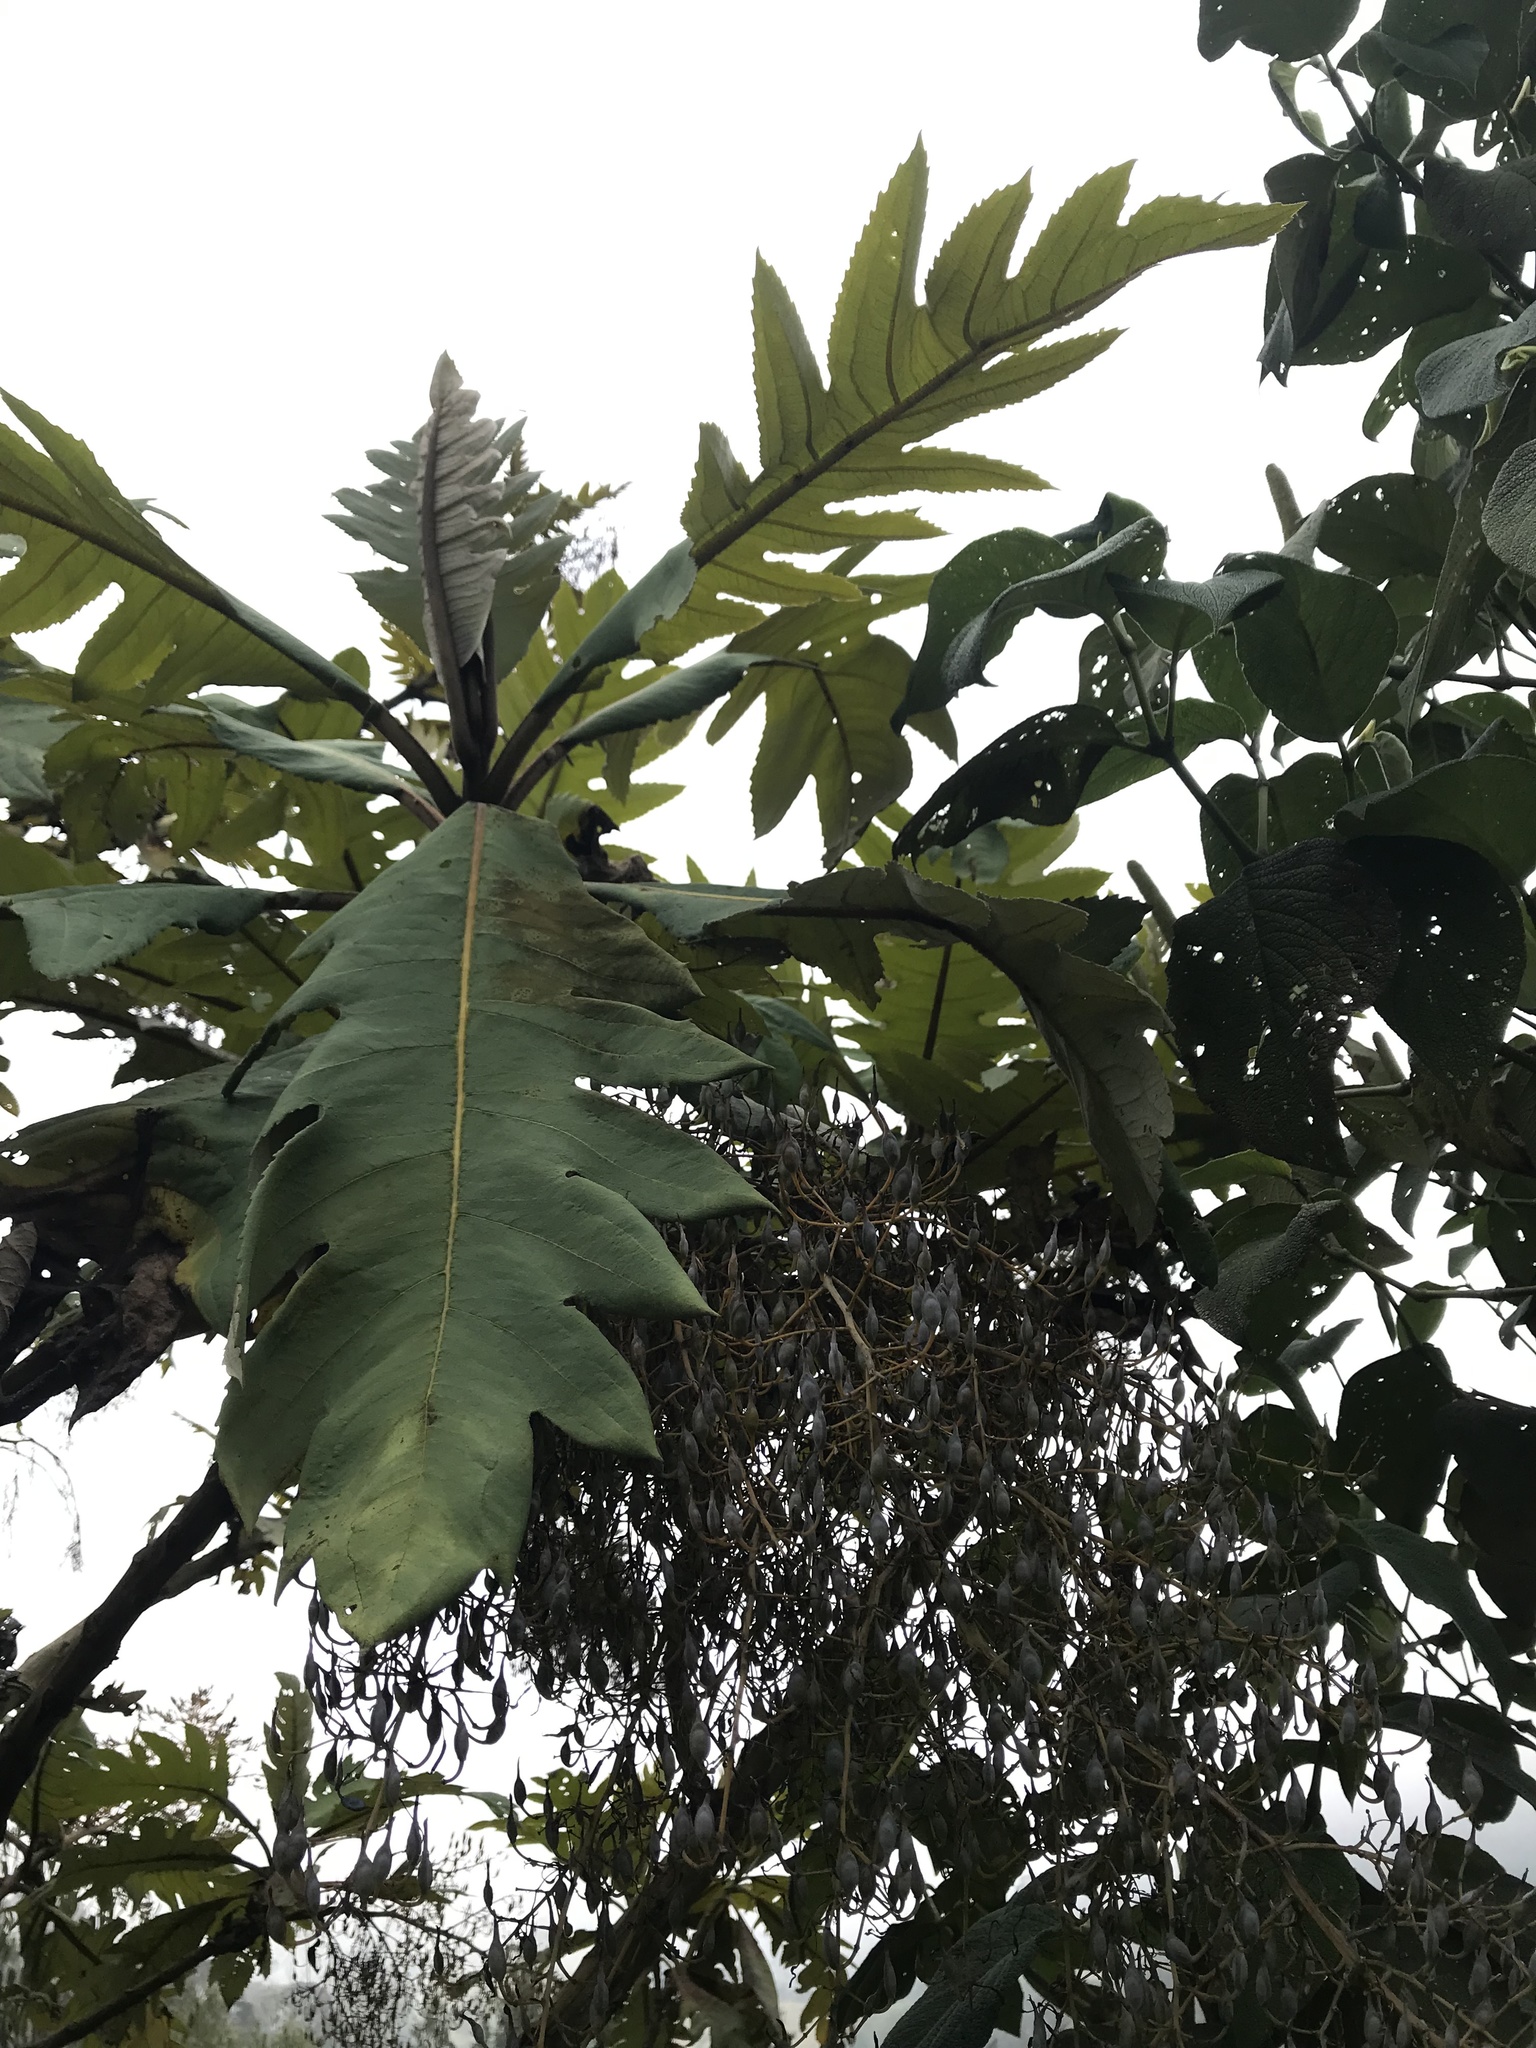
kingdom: Plantae
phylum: Tracheophyta
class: Magnoliopsida
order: Ranunculales
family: Papaveraceae
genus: Bocconia
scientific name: Bocconia frutescens
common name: Tree poppy
